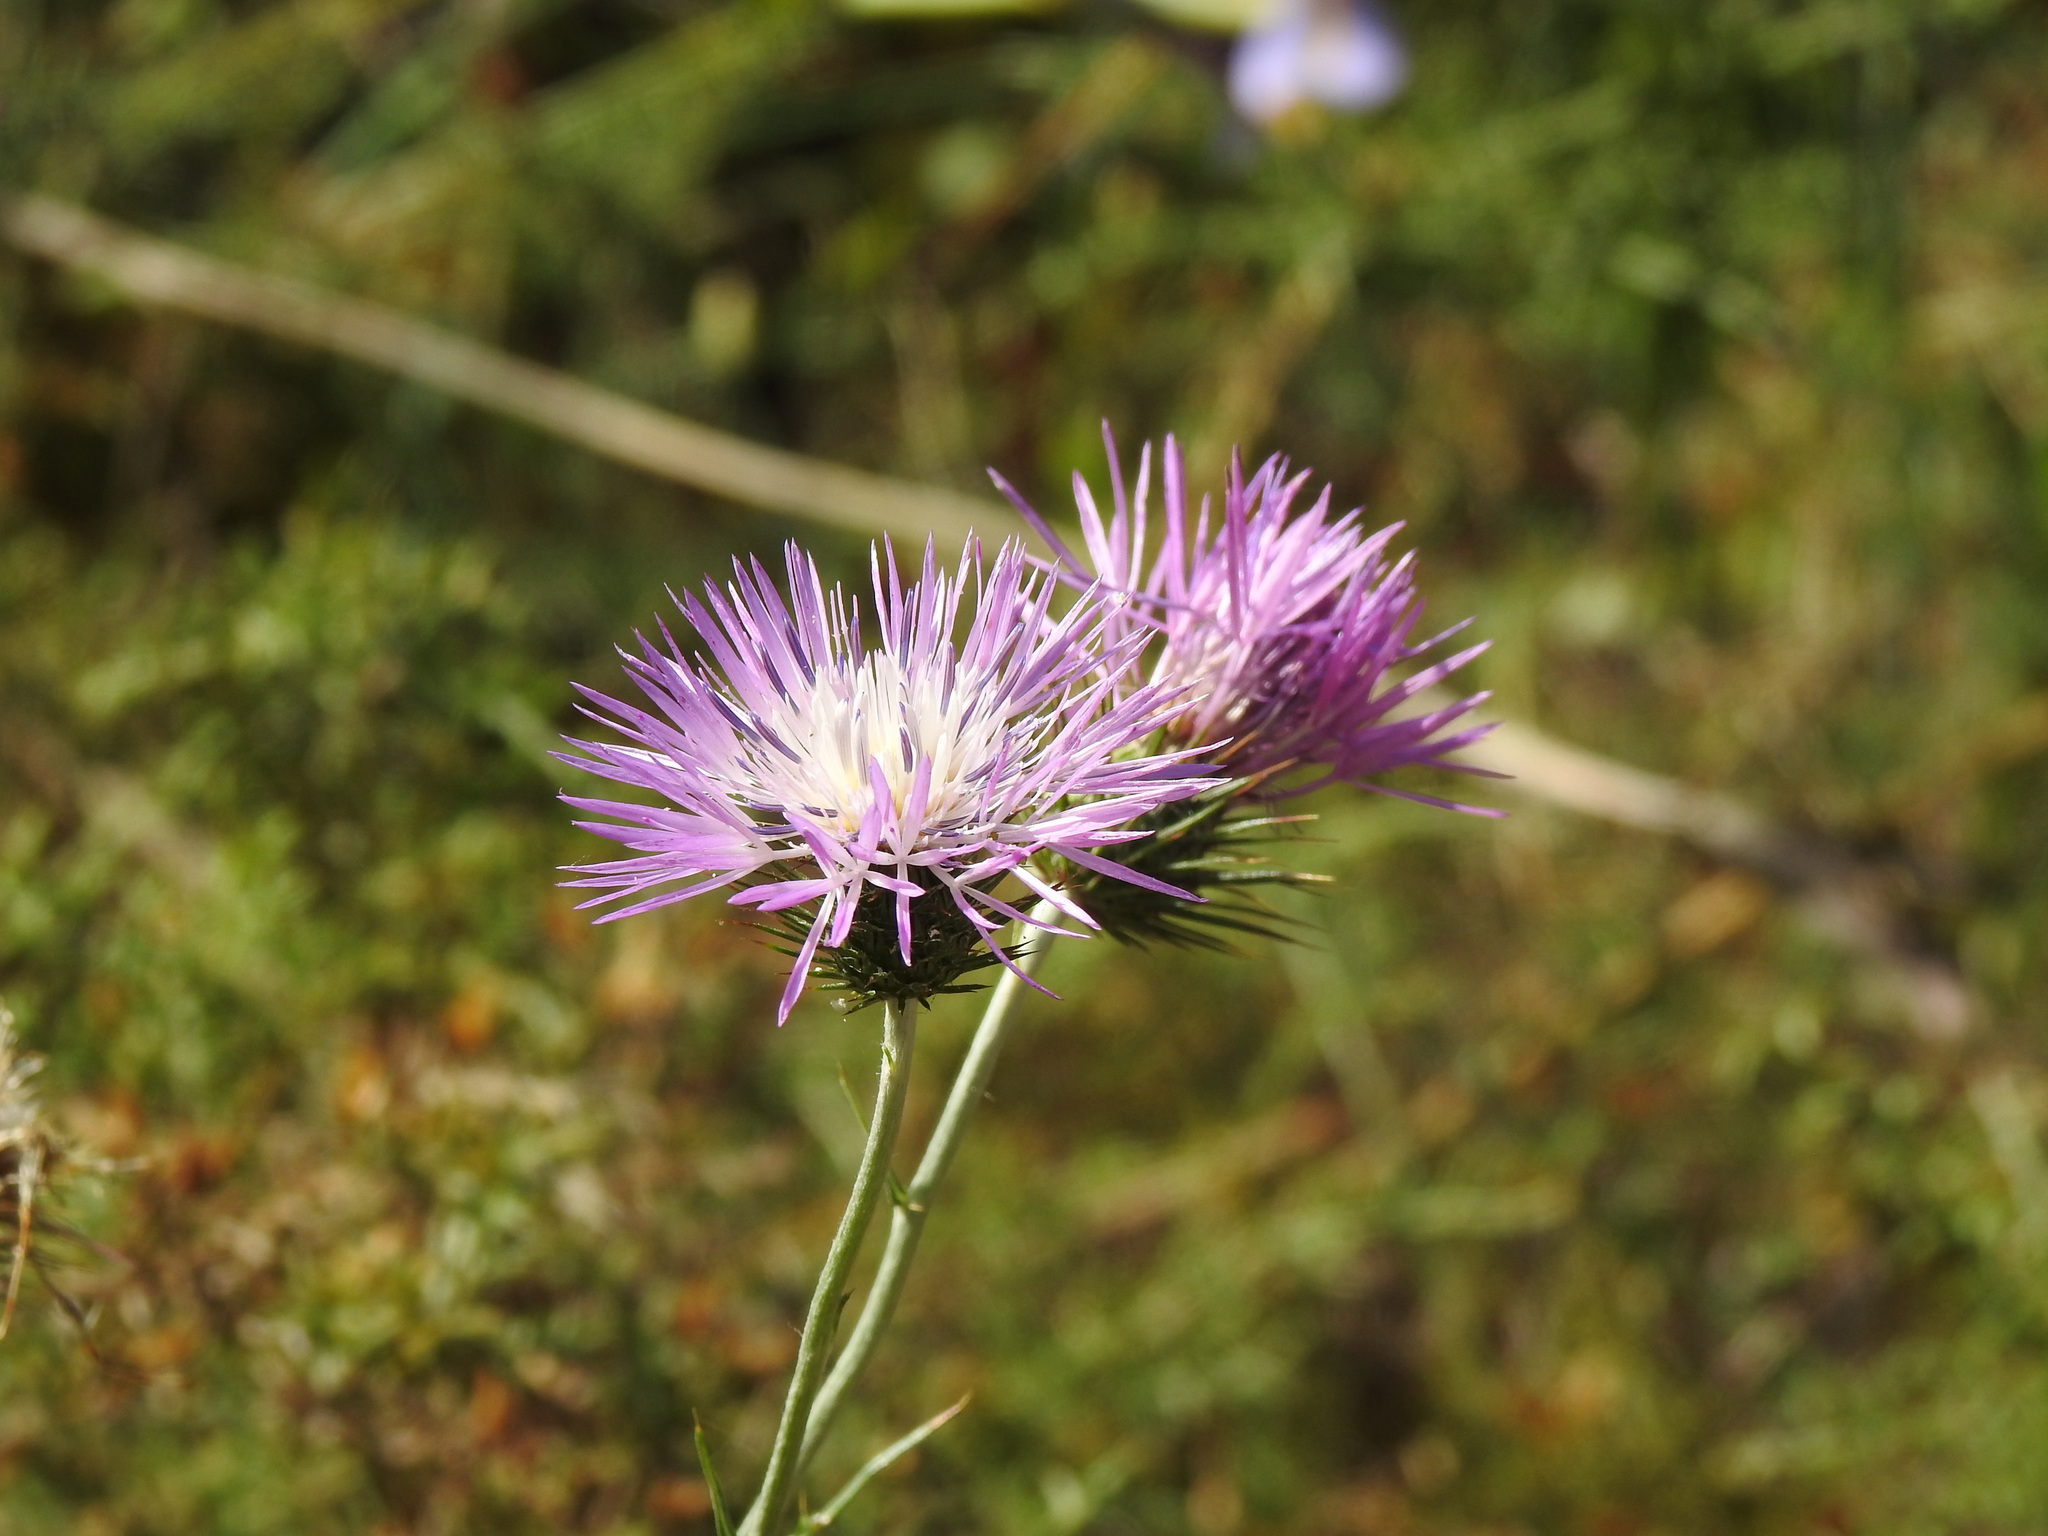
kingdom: Plantae
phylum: Tracheophyta
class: Magnoliopsida
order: Asterales
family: Asteraceae
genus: Galactites
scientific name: Galactites tomentosa
